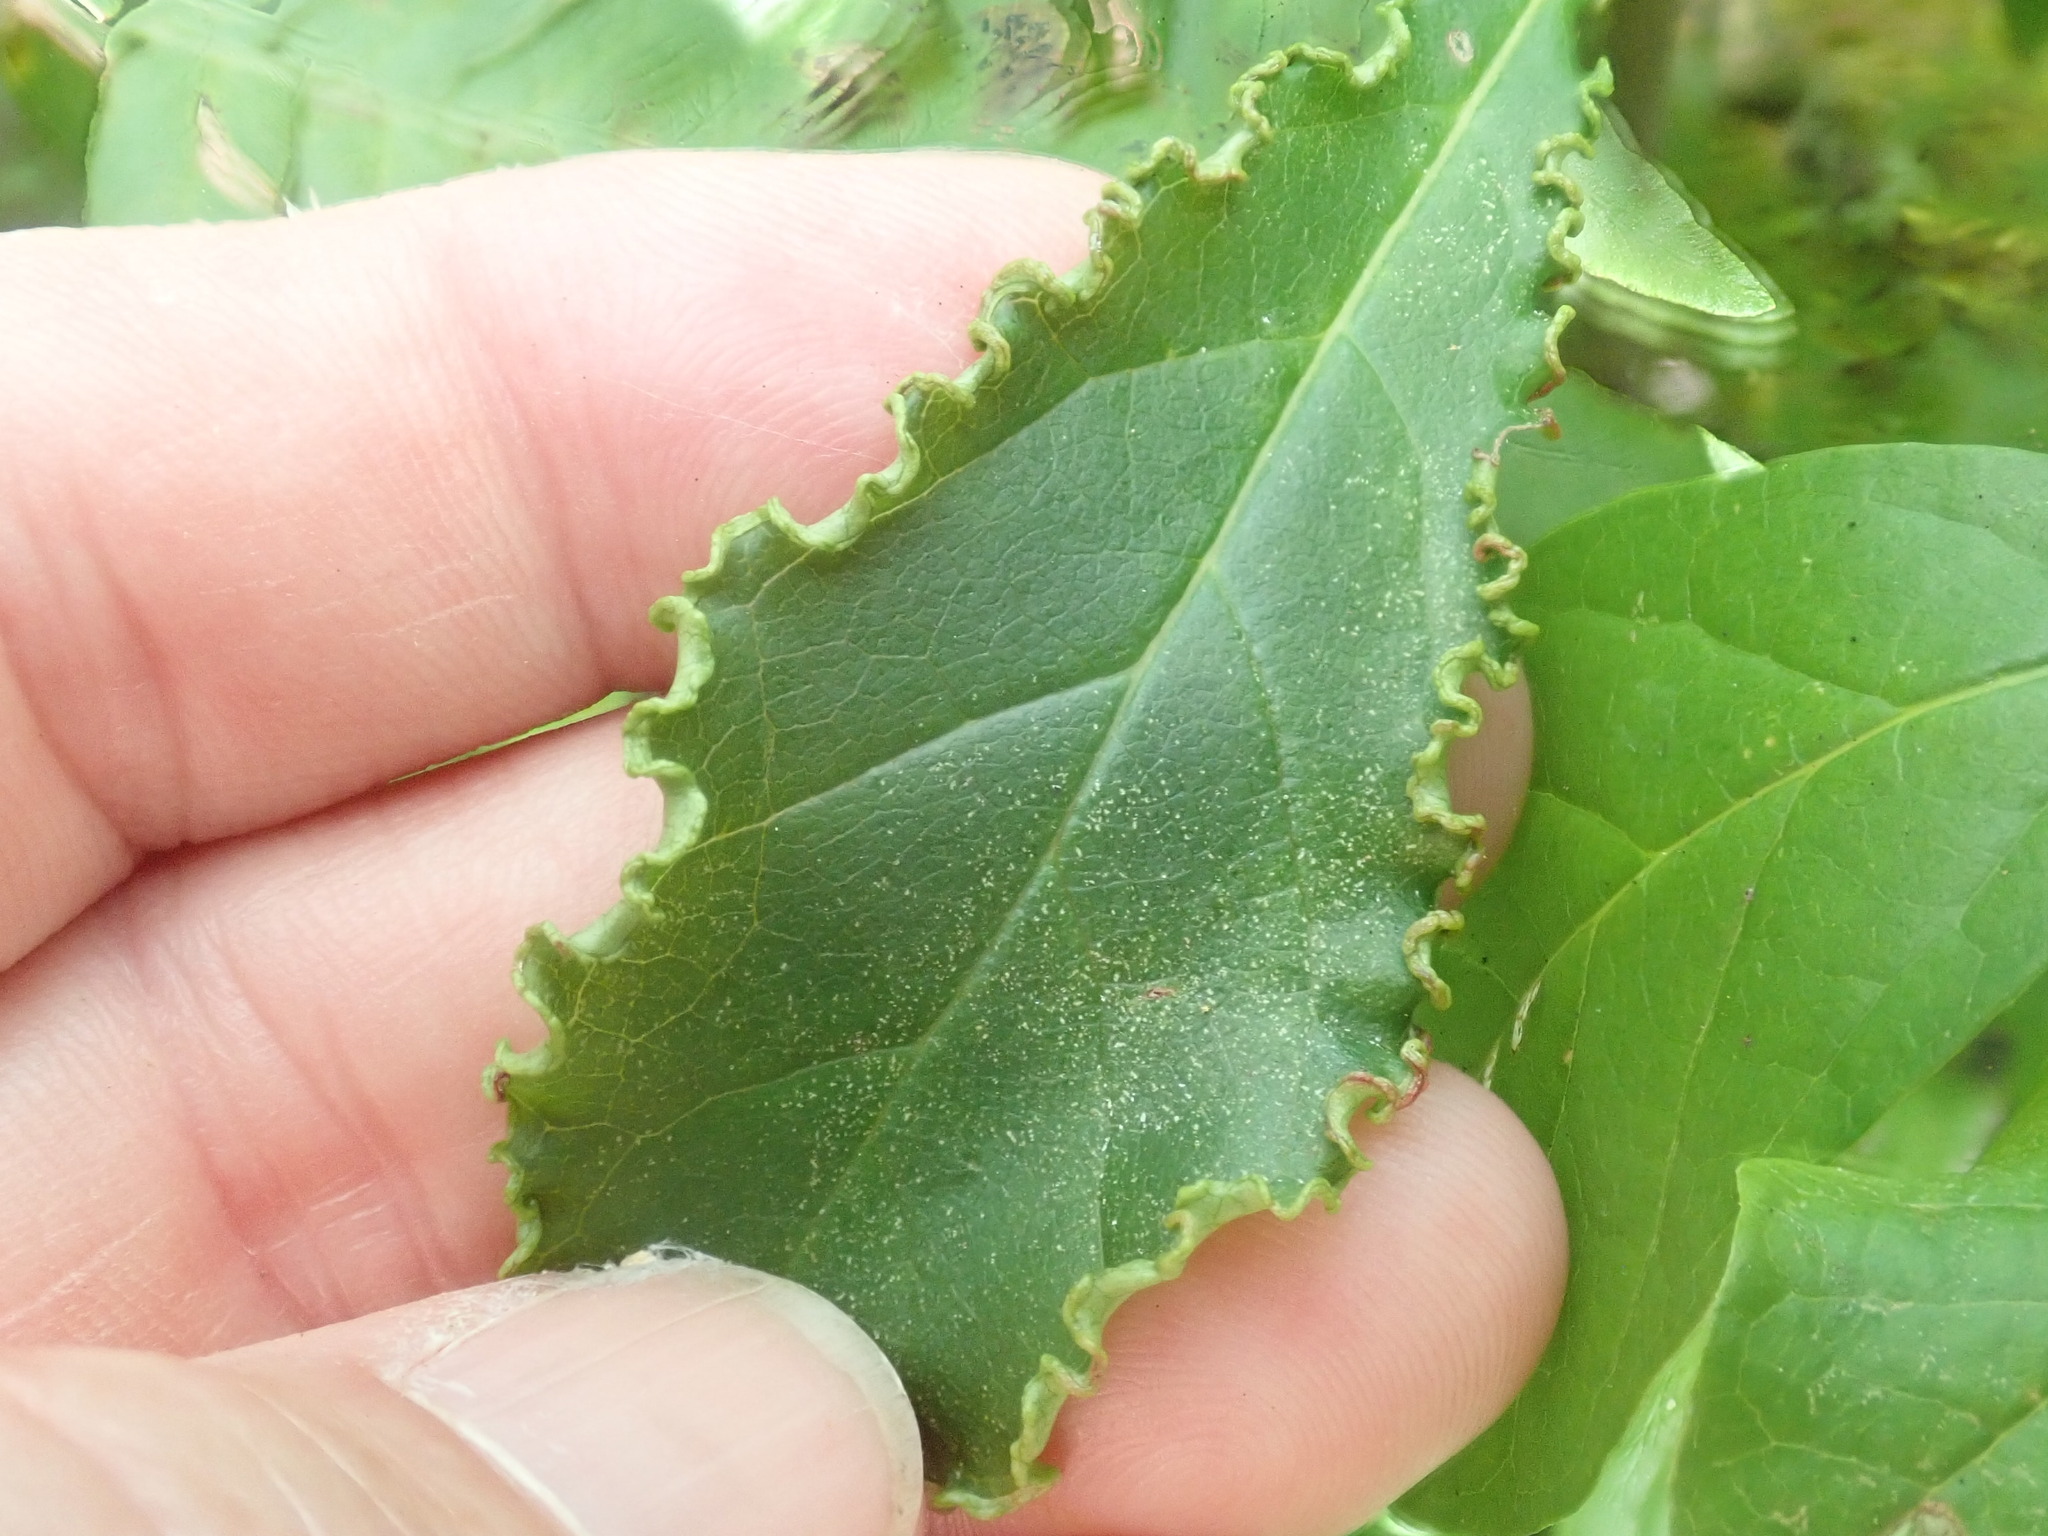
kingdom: Animalia
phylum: Arthropoda
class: Arachnida
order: Trombidiformes
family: Eriophyidae
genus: Aceria
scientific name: Aceria
